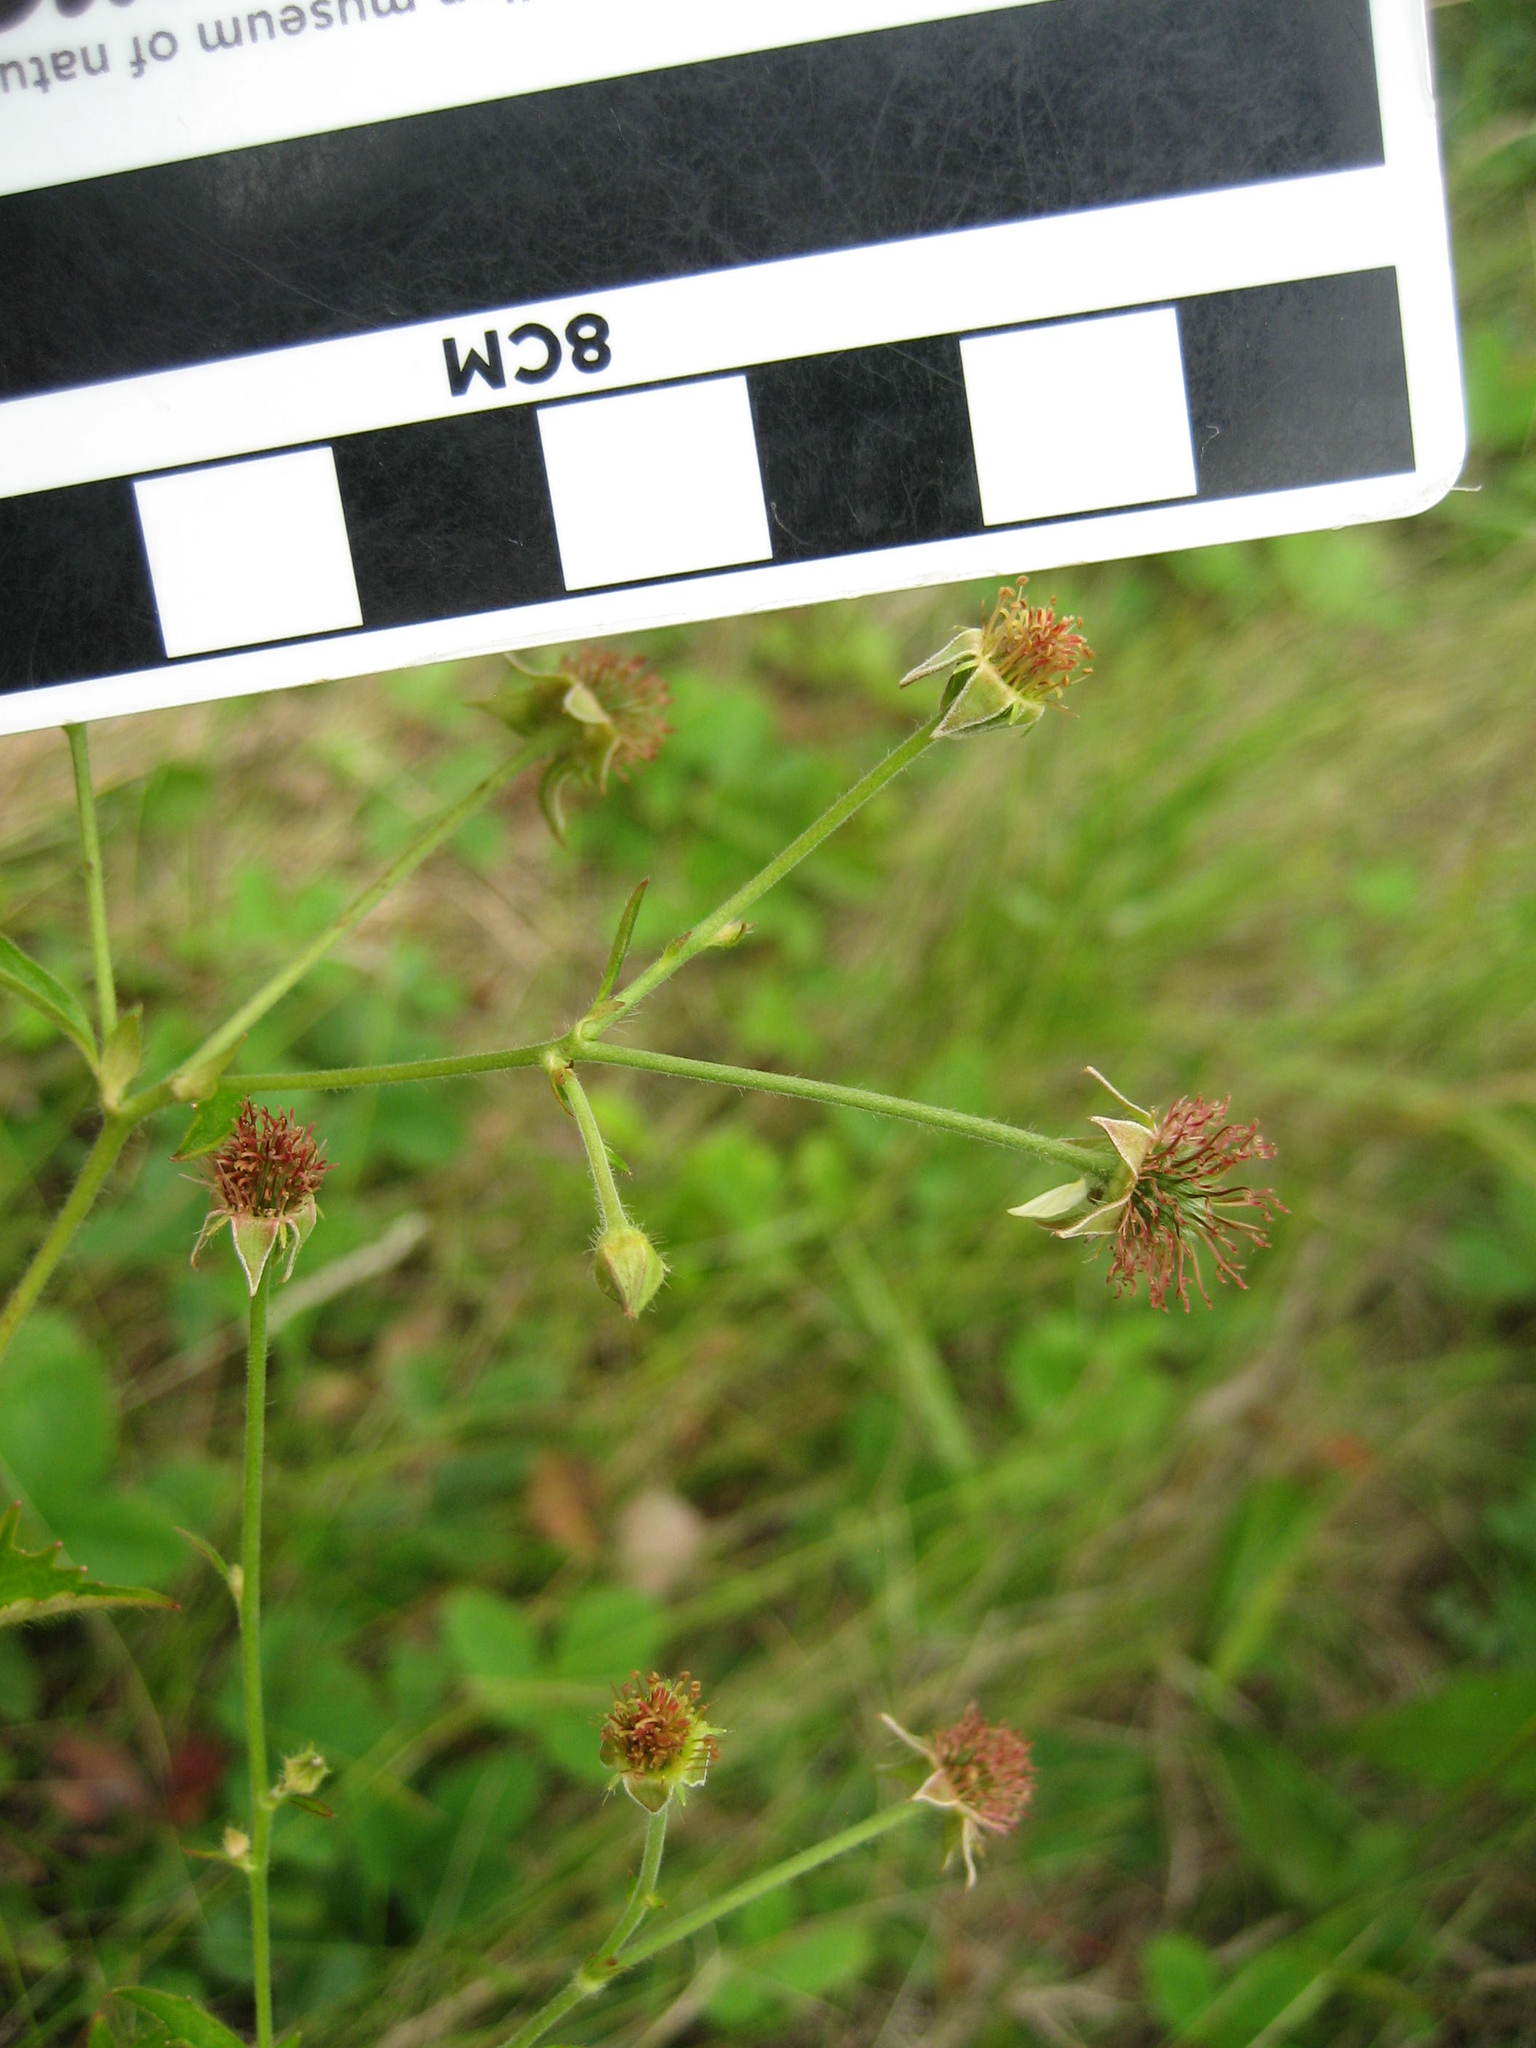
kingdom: Plantae
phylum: Tracheophyta
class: Magnoliopsida
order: Rosales
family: Rosaceae
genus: Geum
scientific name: Geum catlingii
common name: Catling's avens
